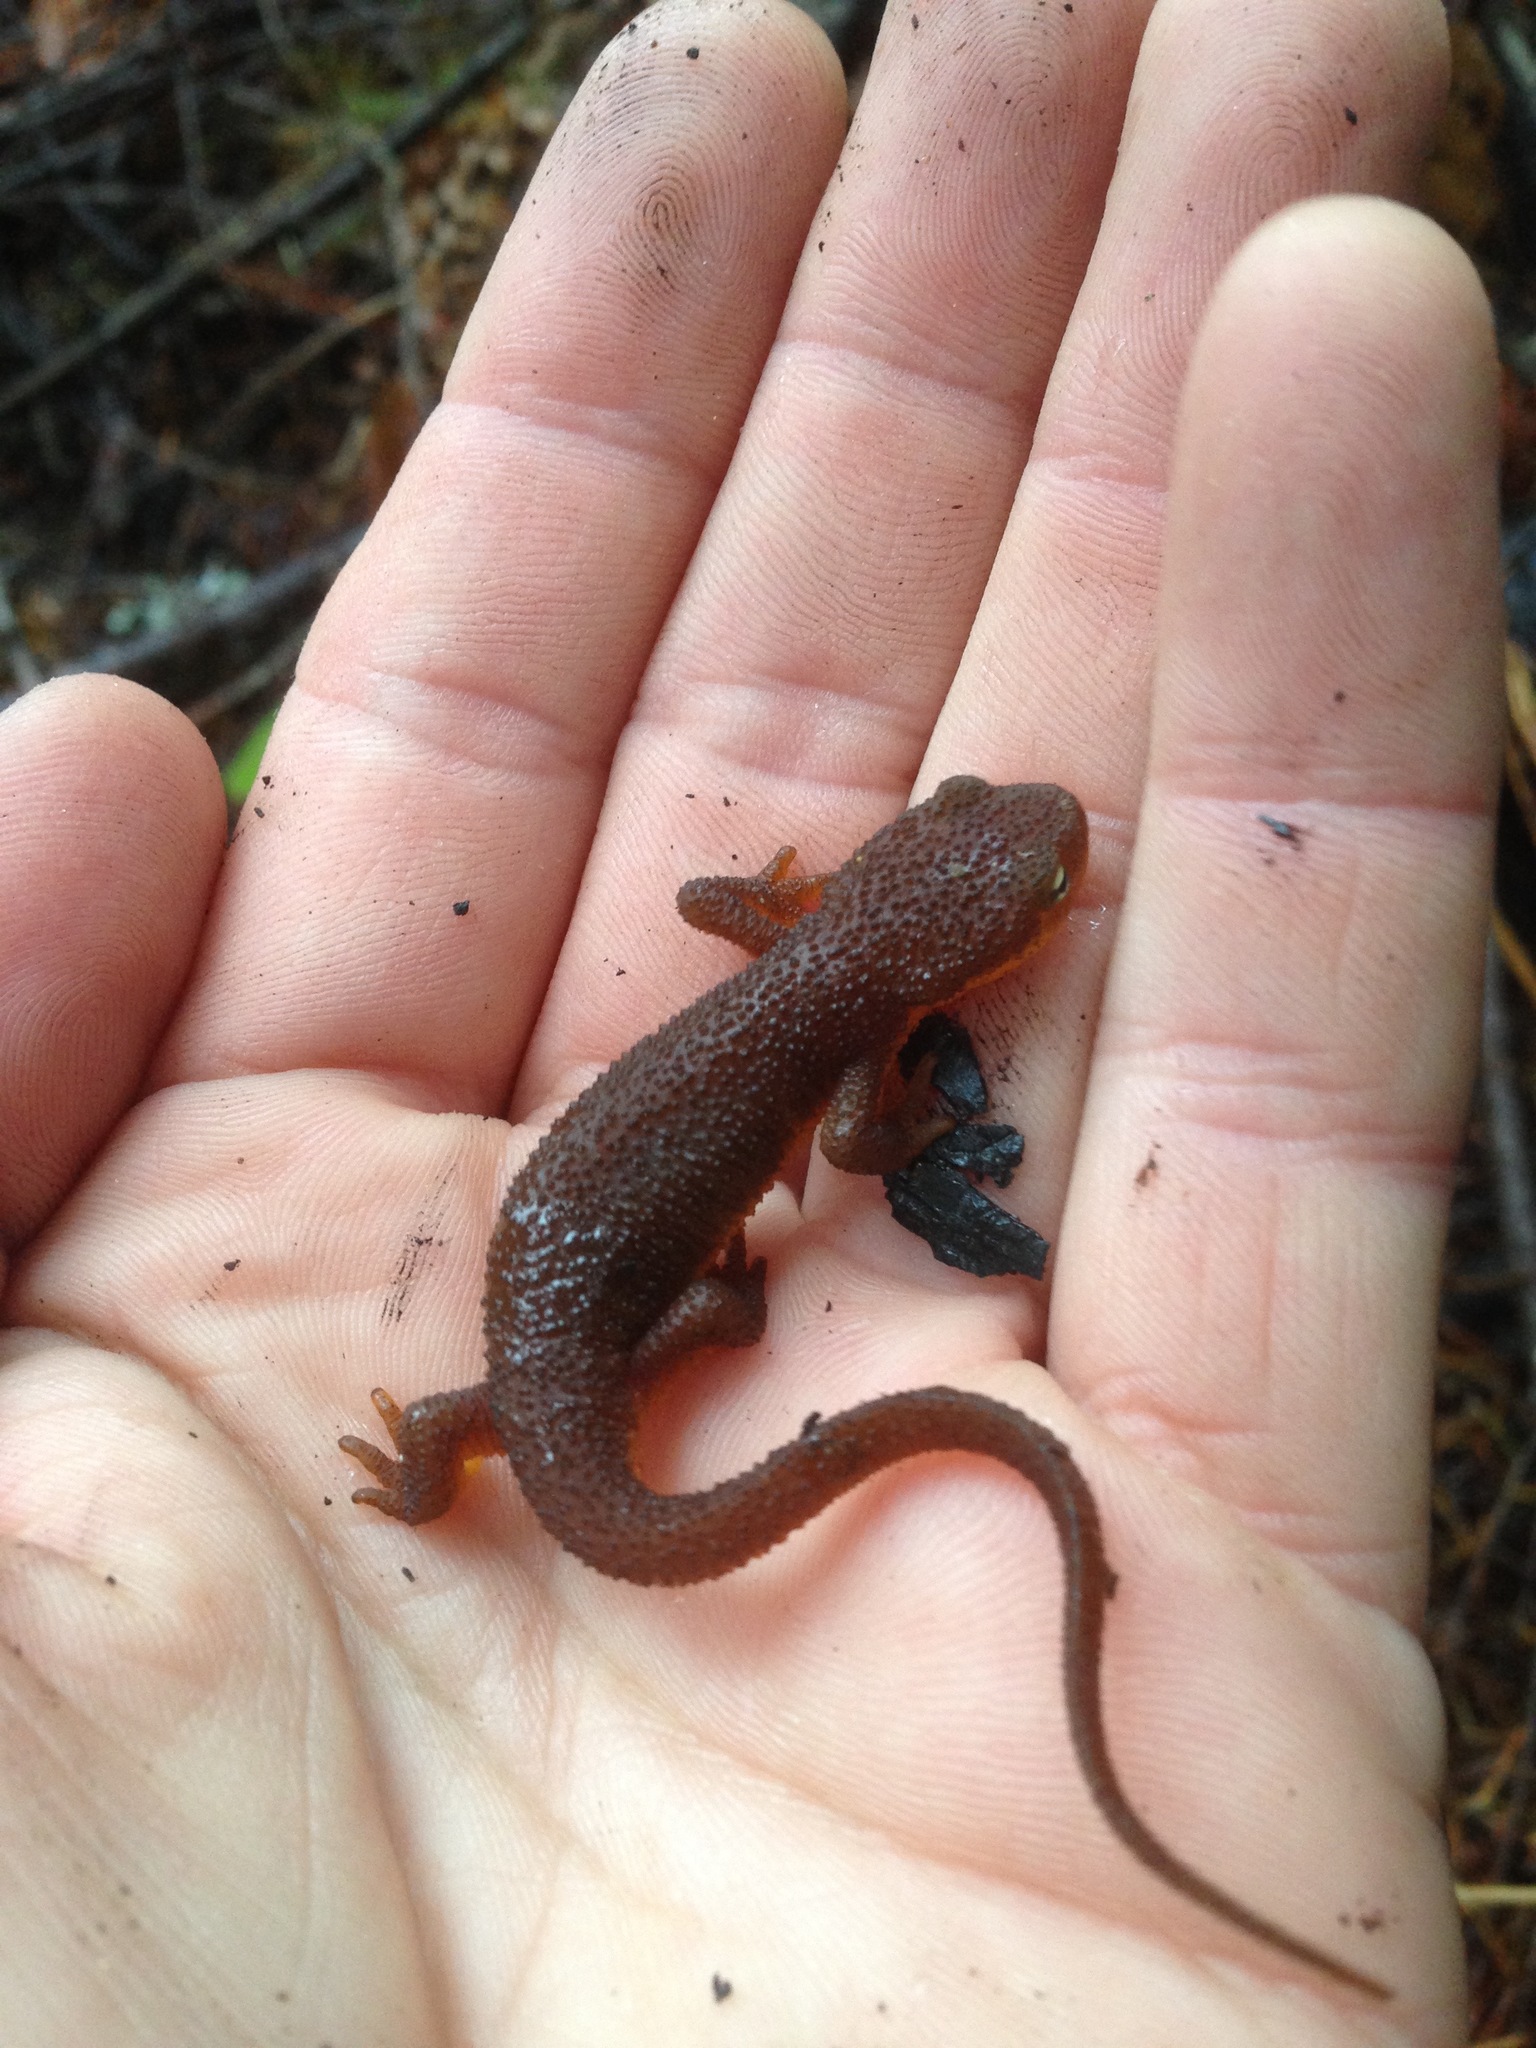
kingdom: Animalia
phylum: Chordata
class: Amphibia
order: Caudata
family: Salamandridae
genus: Taricha
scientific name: Taricha torosa
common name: California newt
